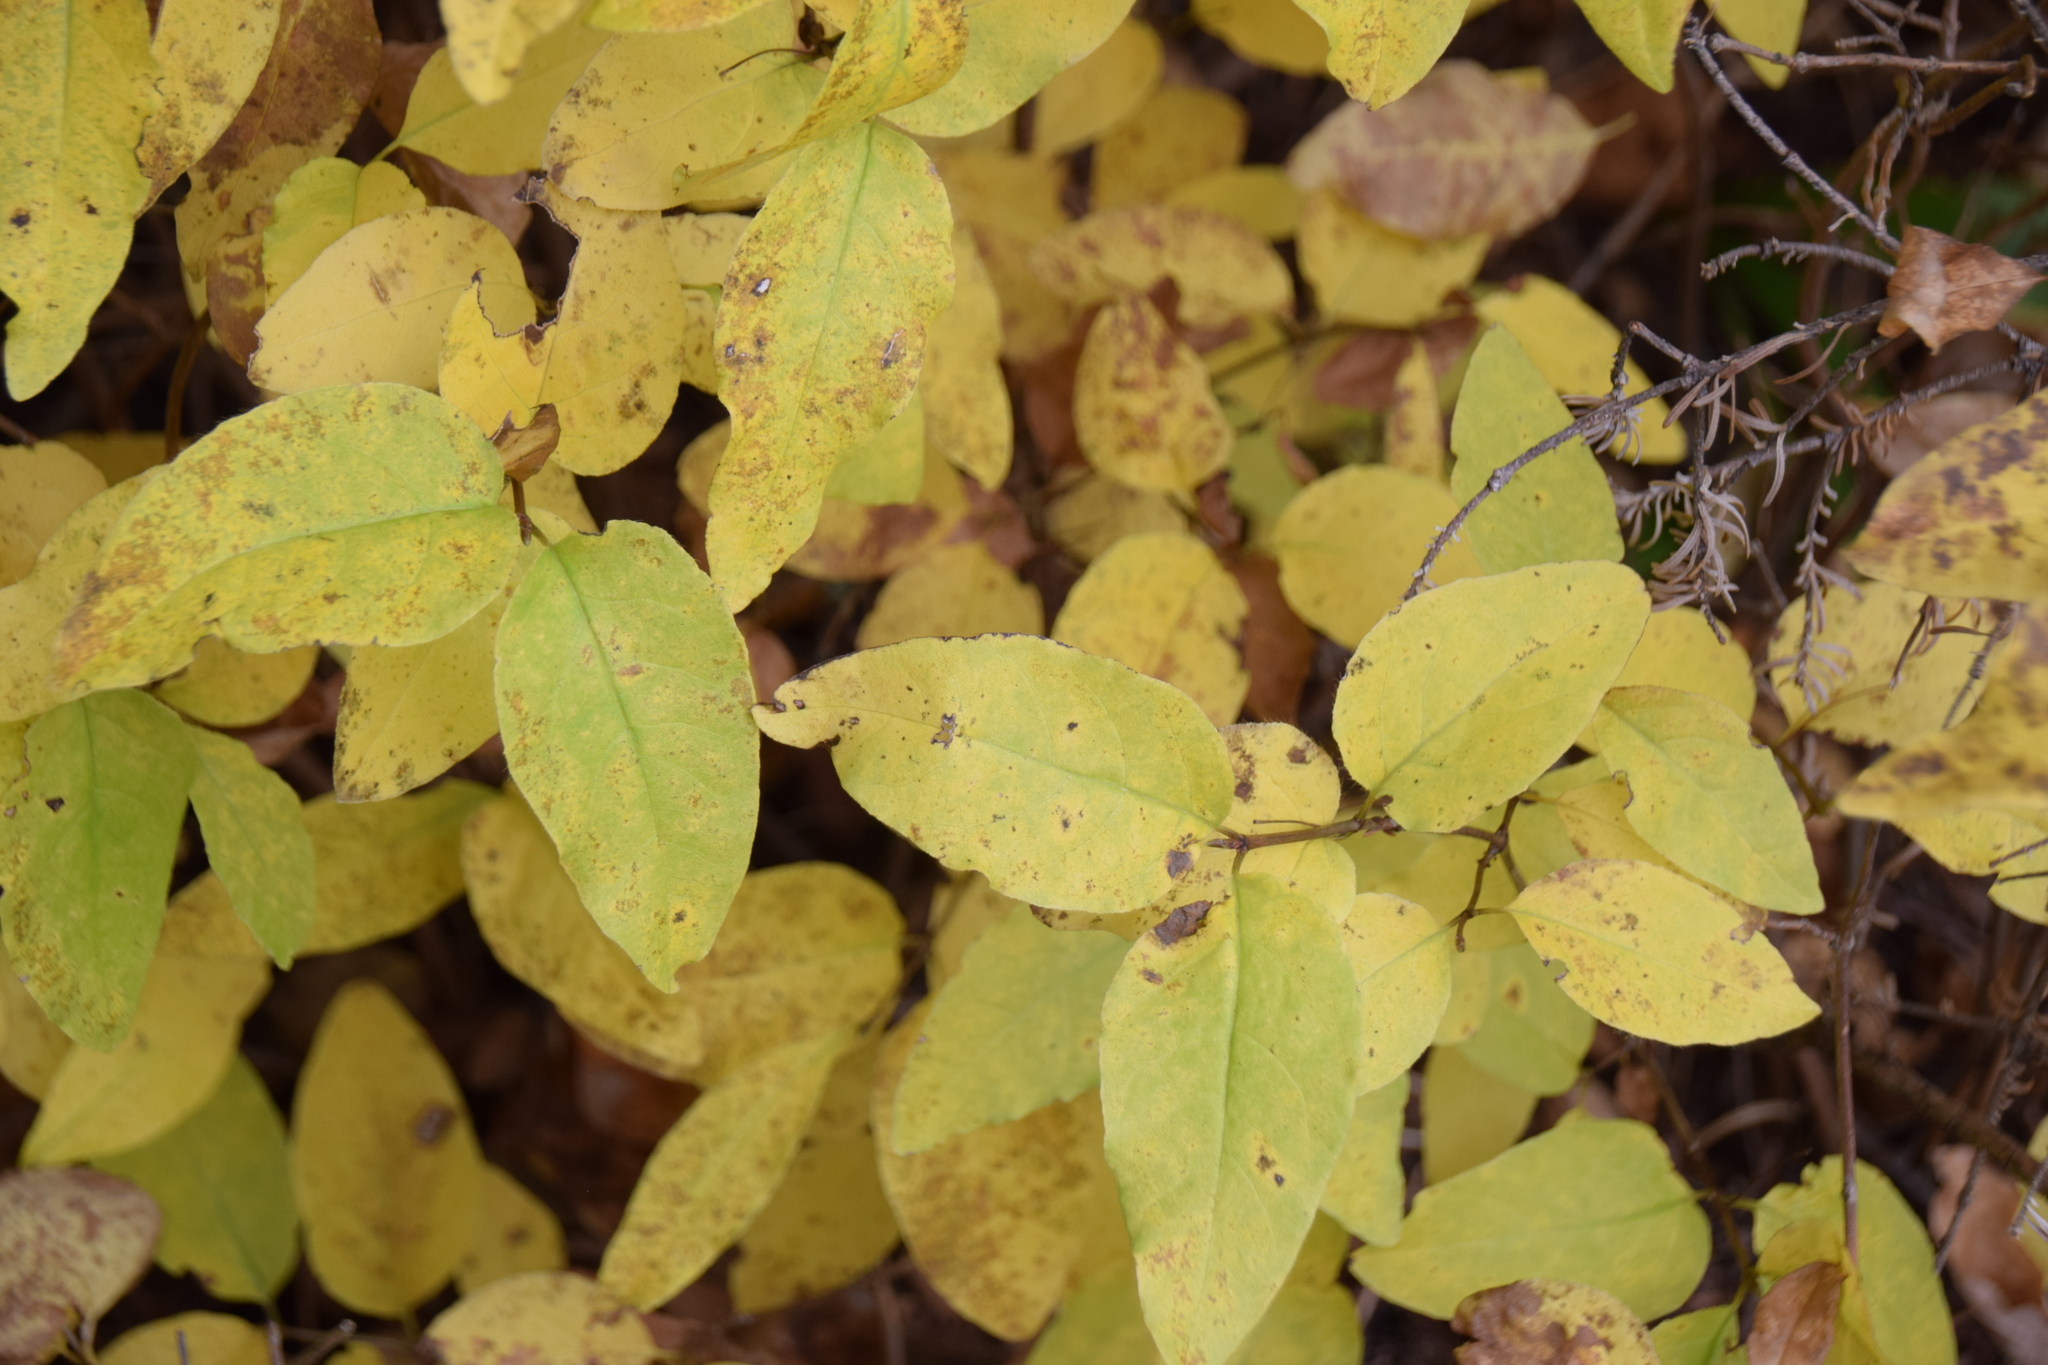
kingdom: Plantae
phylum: Tracheophyta
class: Magnoliopsida
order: Dipsacales
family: Caprifoliaceae
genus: Lonicera
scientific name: Lonicera canadensis
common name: American fly-honeysuckle
